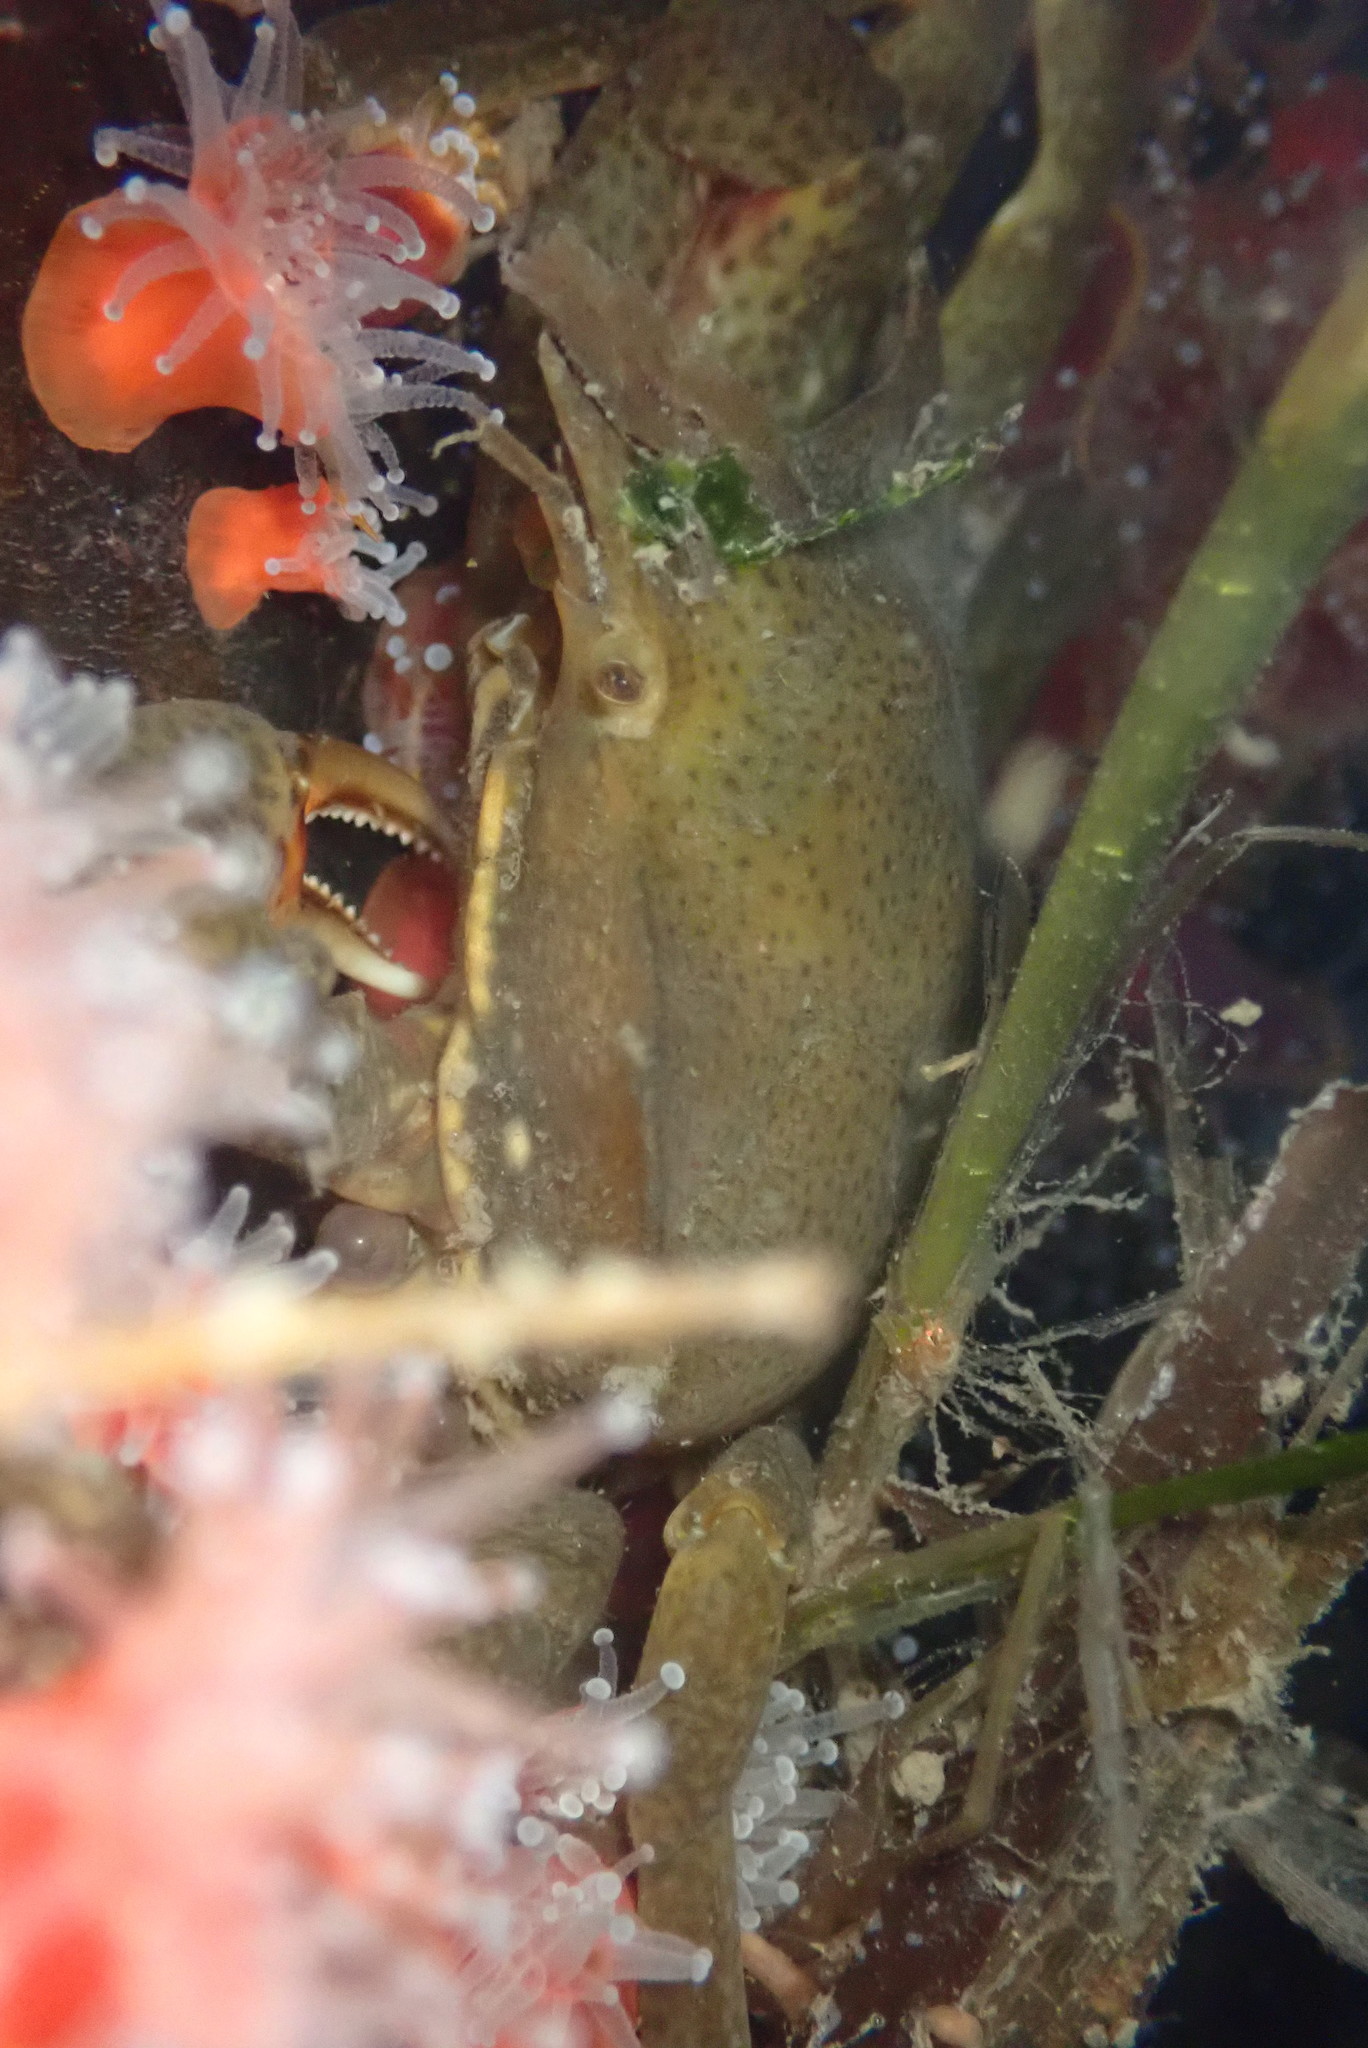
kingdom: Animalia
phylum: Arthropoda
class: Malacostraca
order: Decapoda
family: Epialtidae
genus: Pugettia
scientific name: Pugettia producta
